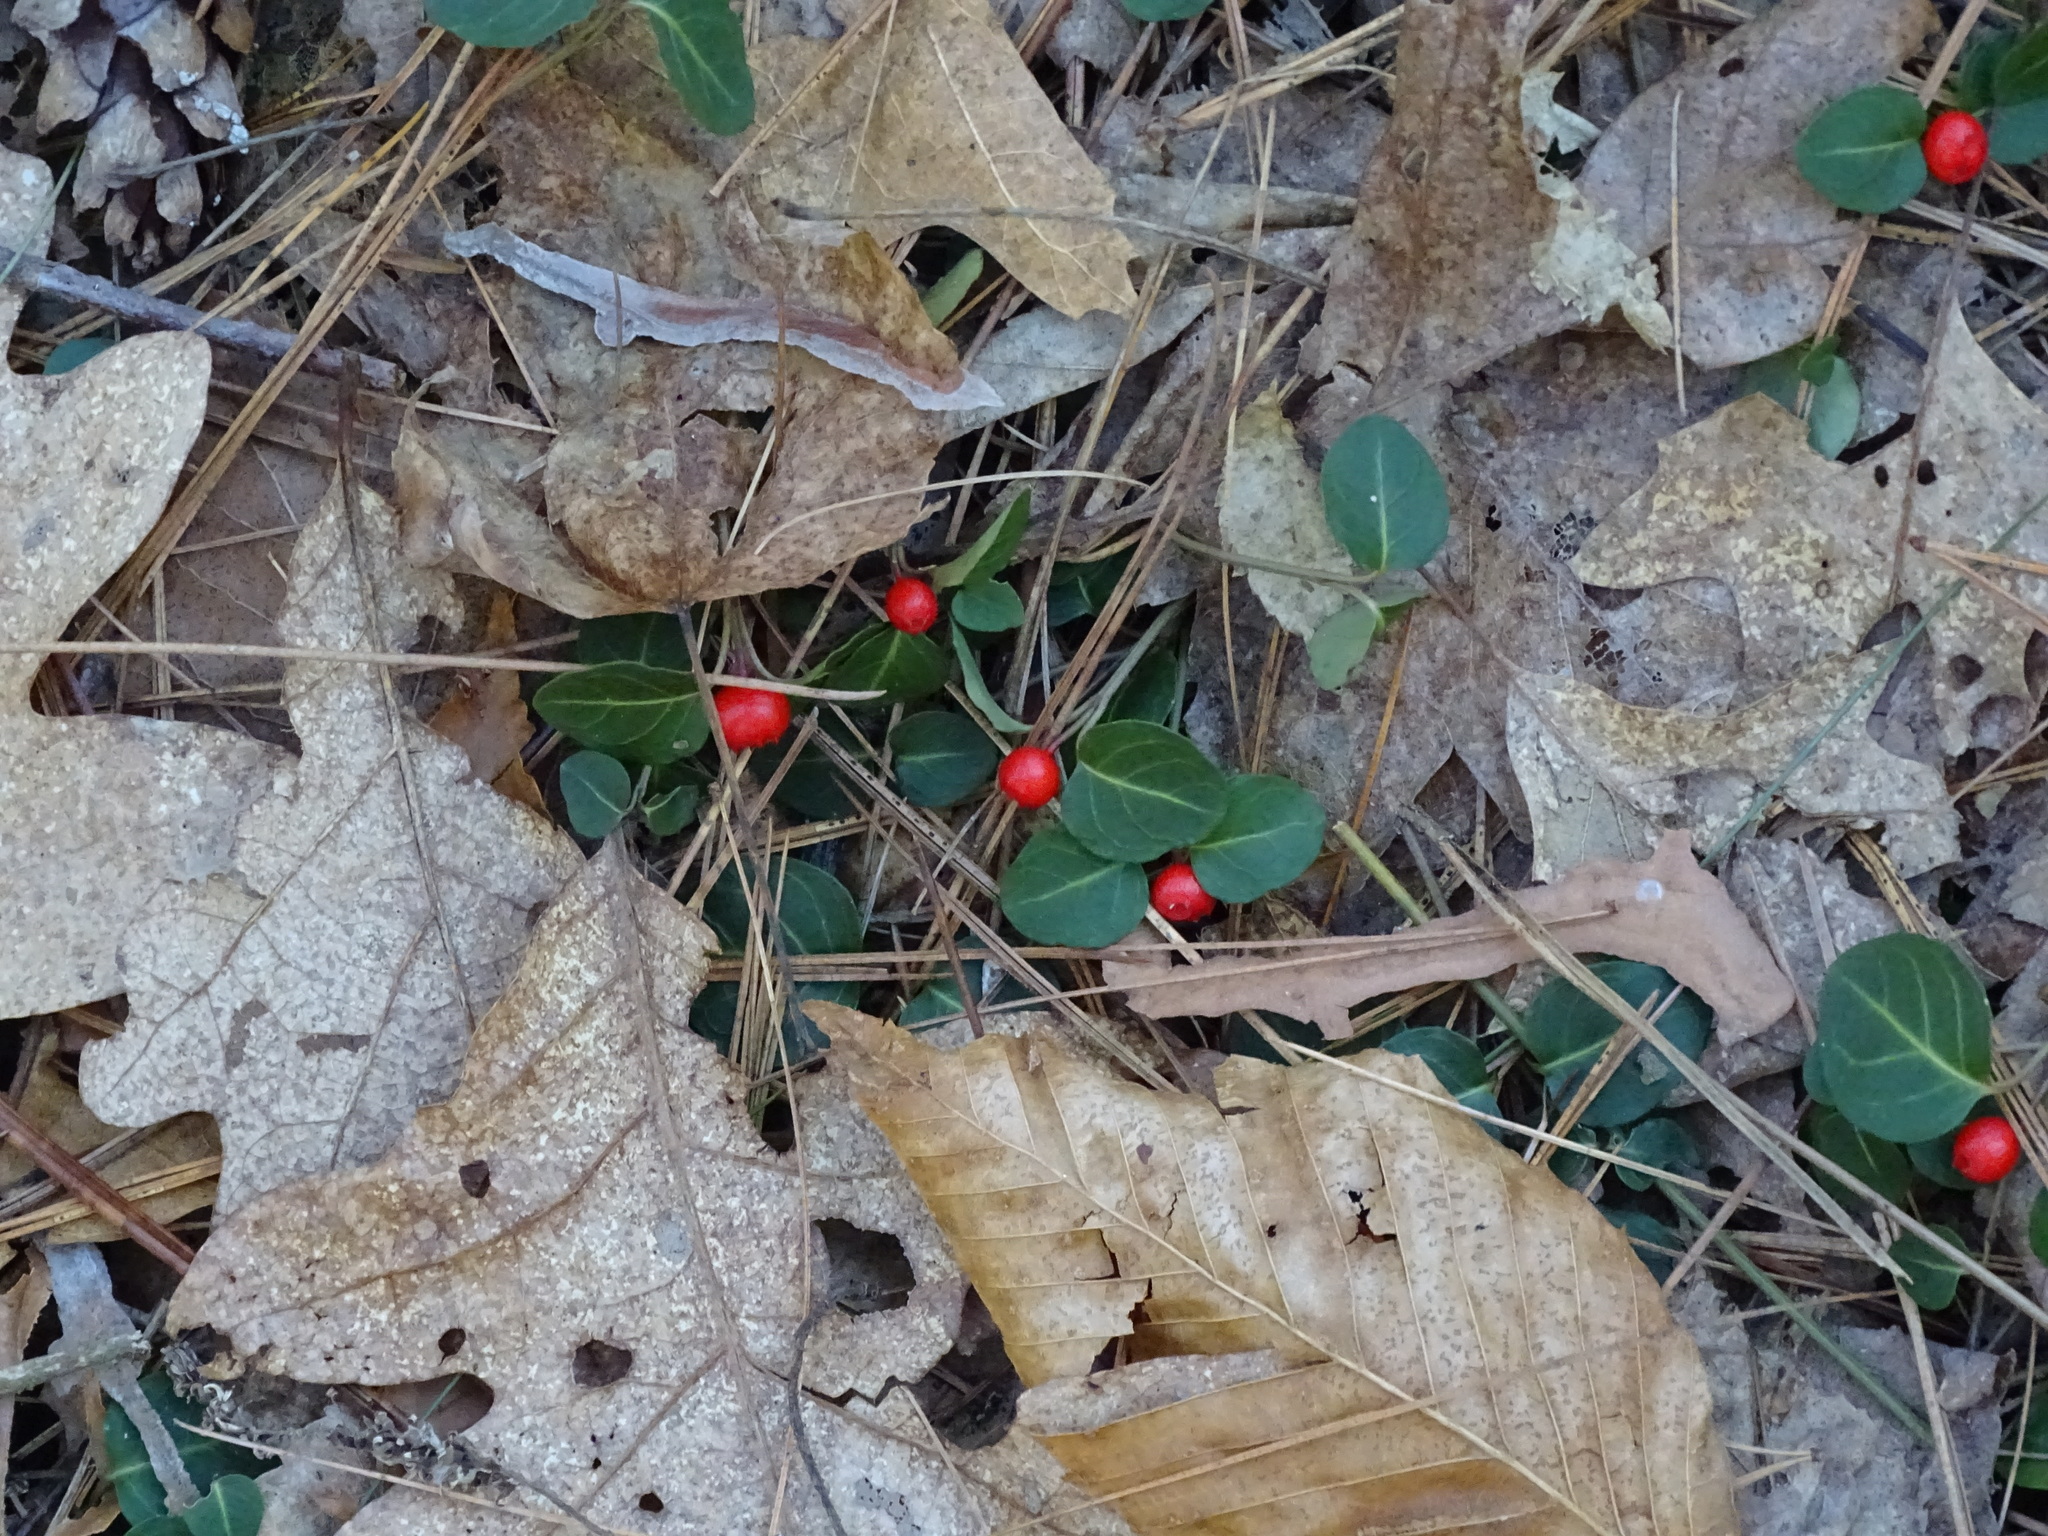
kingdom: Plantae
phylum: Tracheophyta
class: Magnoliopsida
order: Gentianales
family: Rubiaceae
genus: Mitchella
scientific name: Mitchella repens
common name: Partridge-berry
